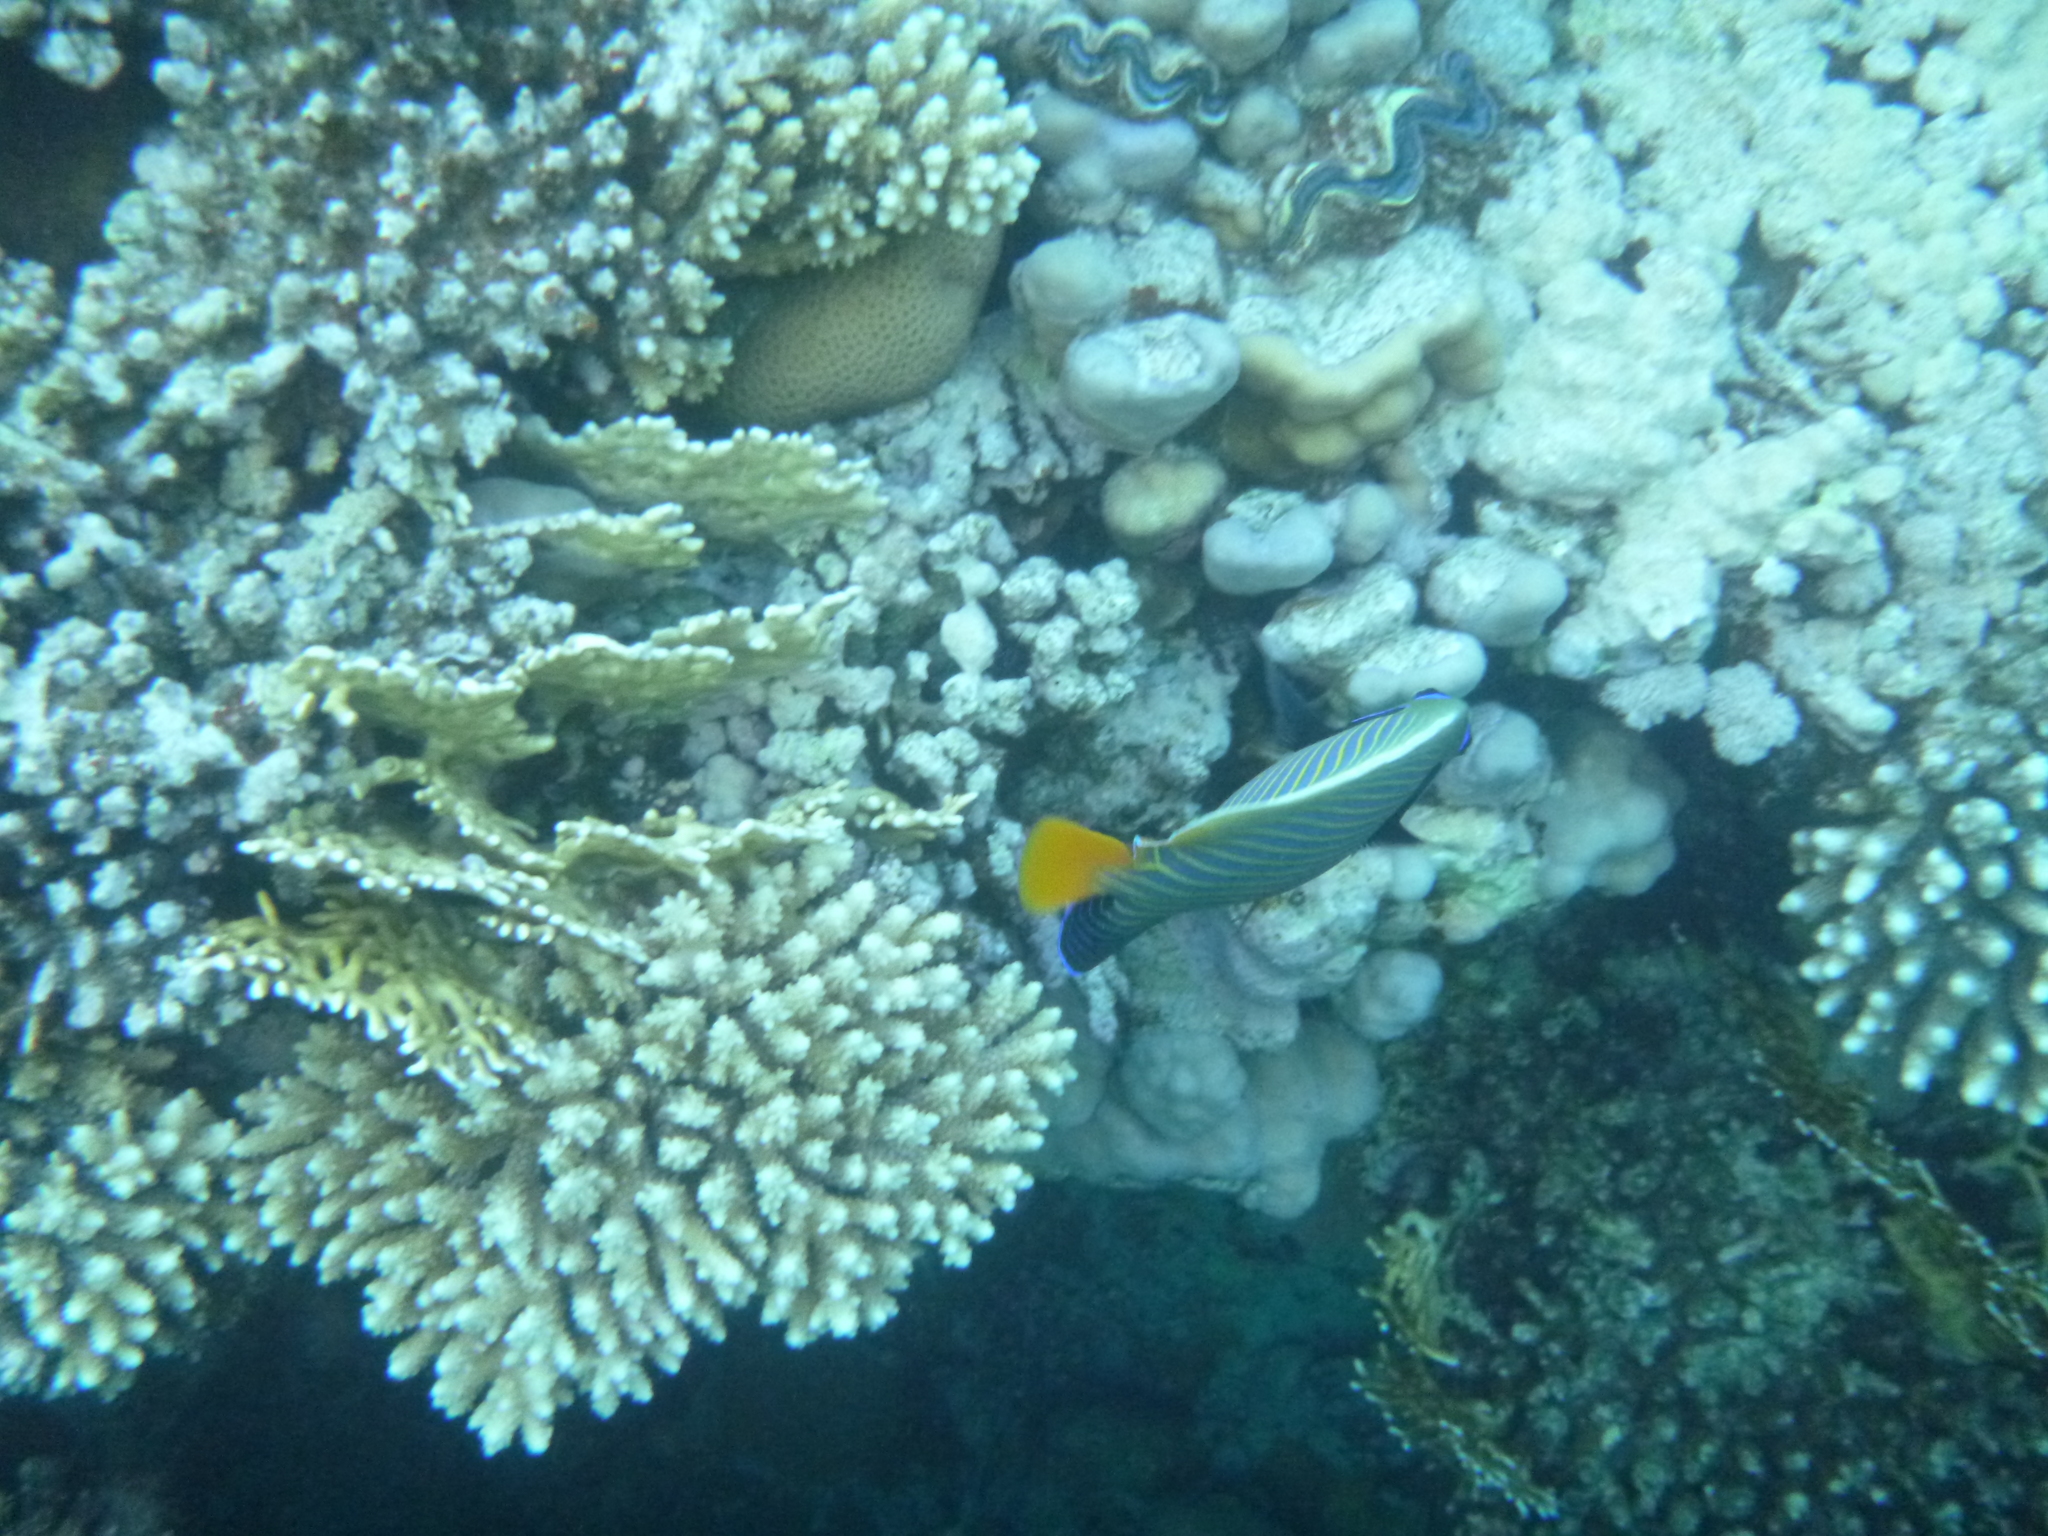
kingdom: Animalia
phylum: Chordata
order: Perciformes
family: Pomacanthidae
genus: Pomacanthus
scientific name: Pomacanthus imperator
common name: Emperor angelfish
